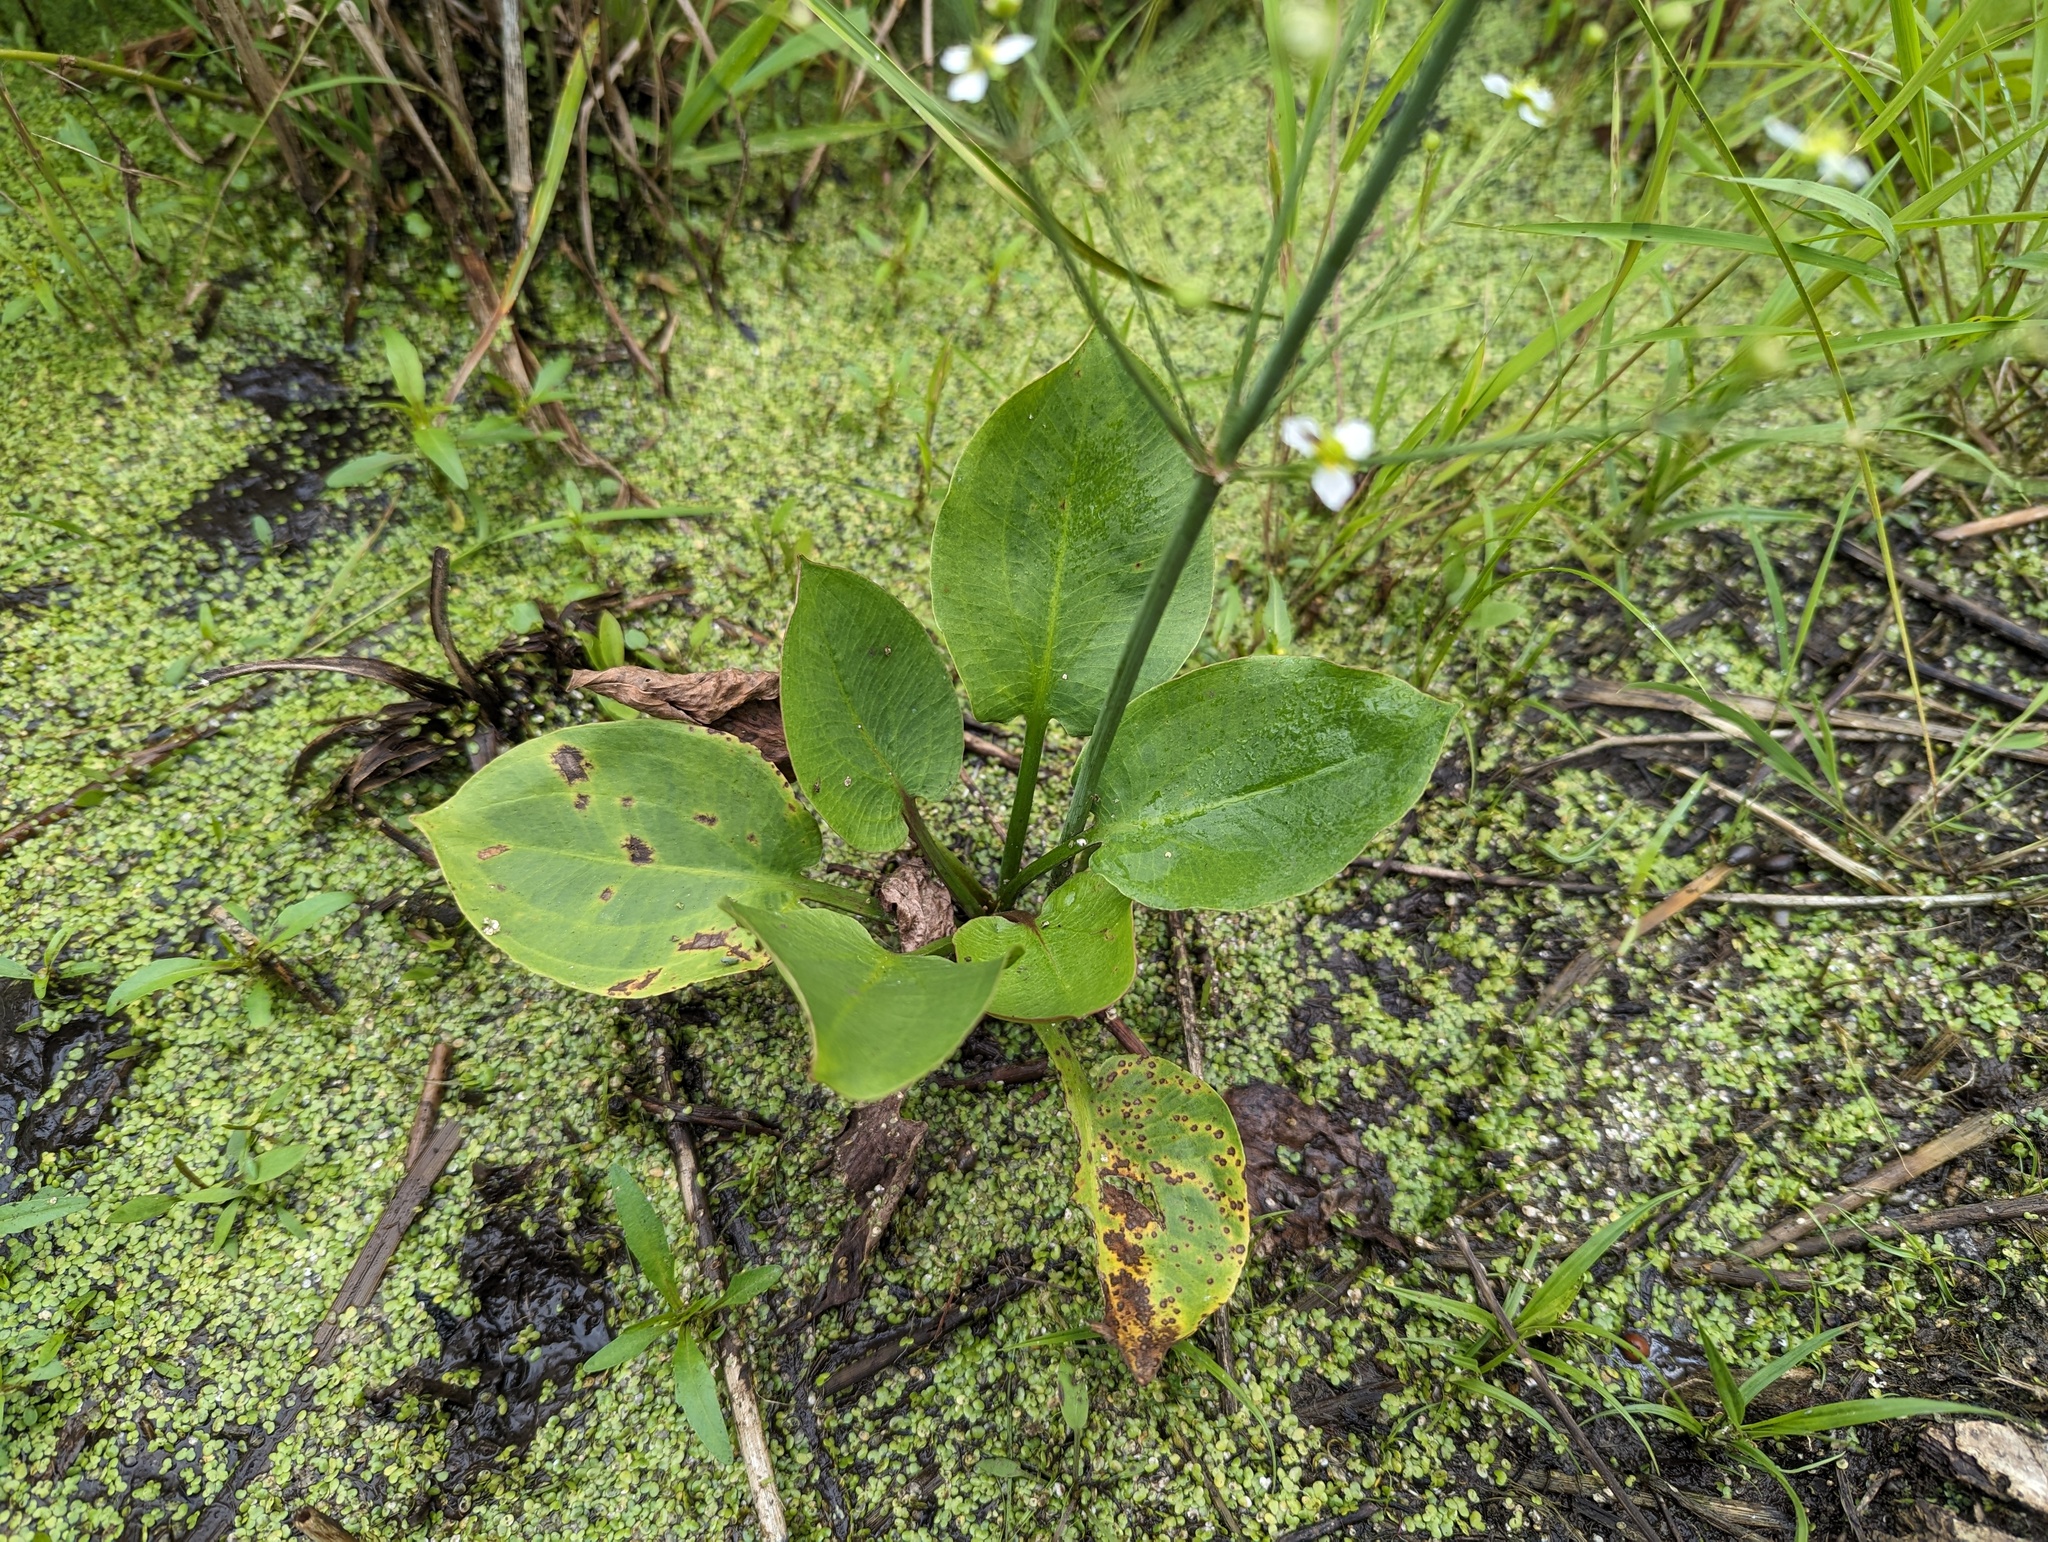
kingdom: Plantae
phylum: Tracheophyta
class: Liliopsida
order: Alismatales
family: Alismataceae
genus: Alisma
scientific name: Alisma triviale
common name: Northern water-plantain
